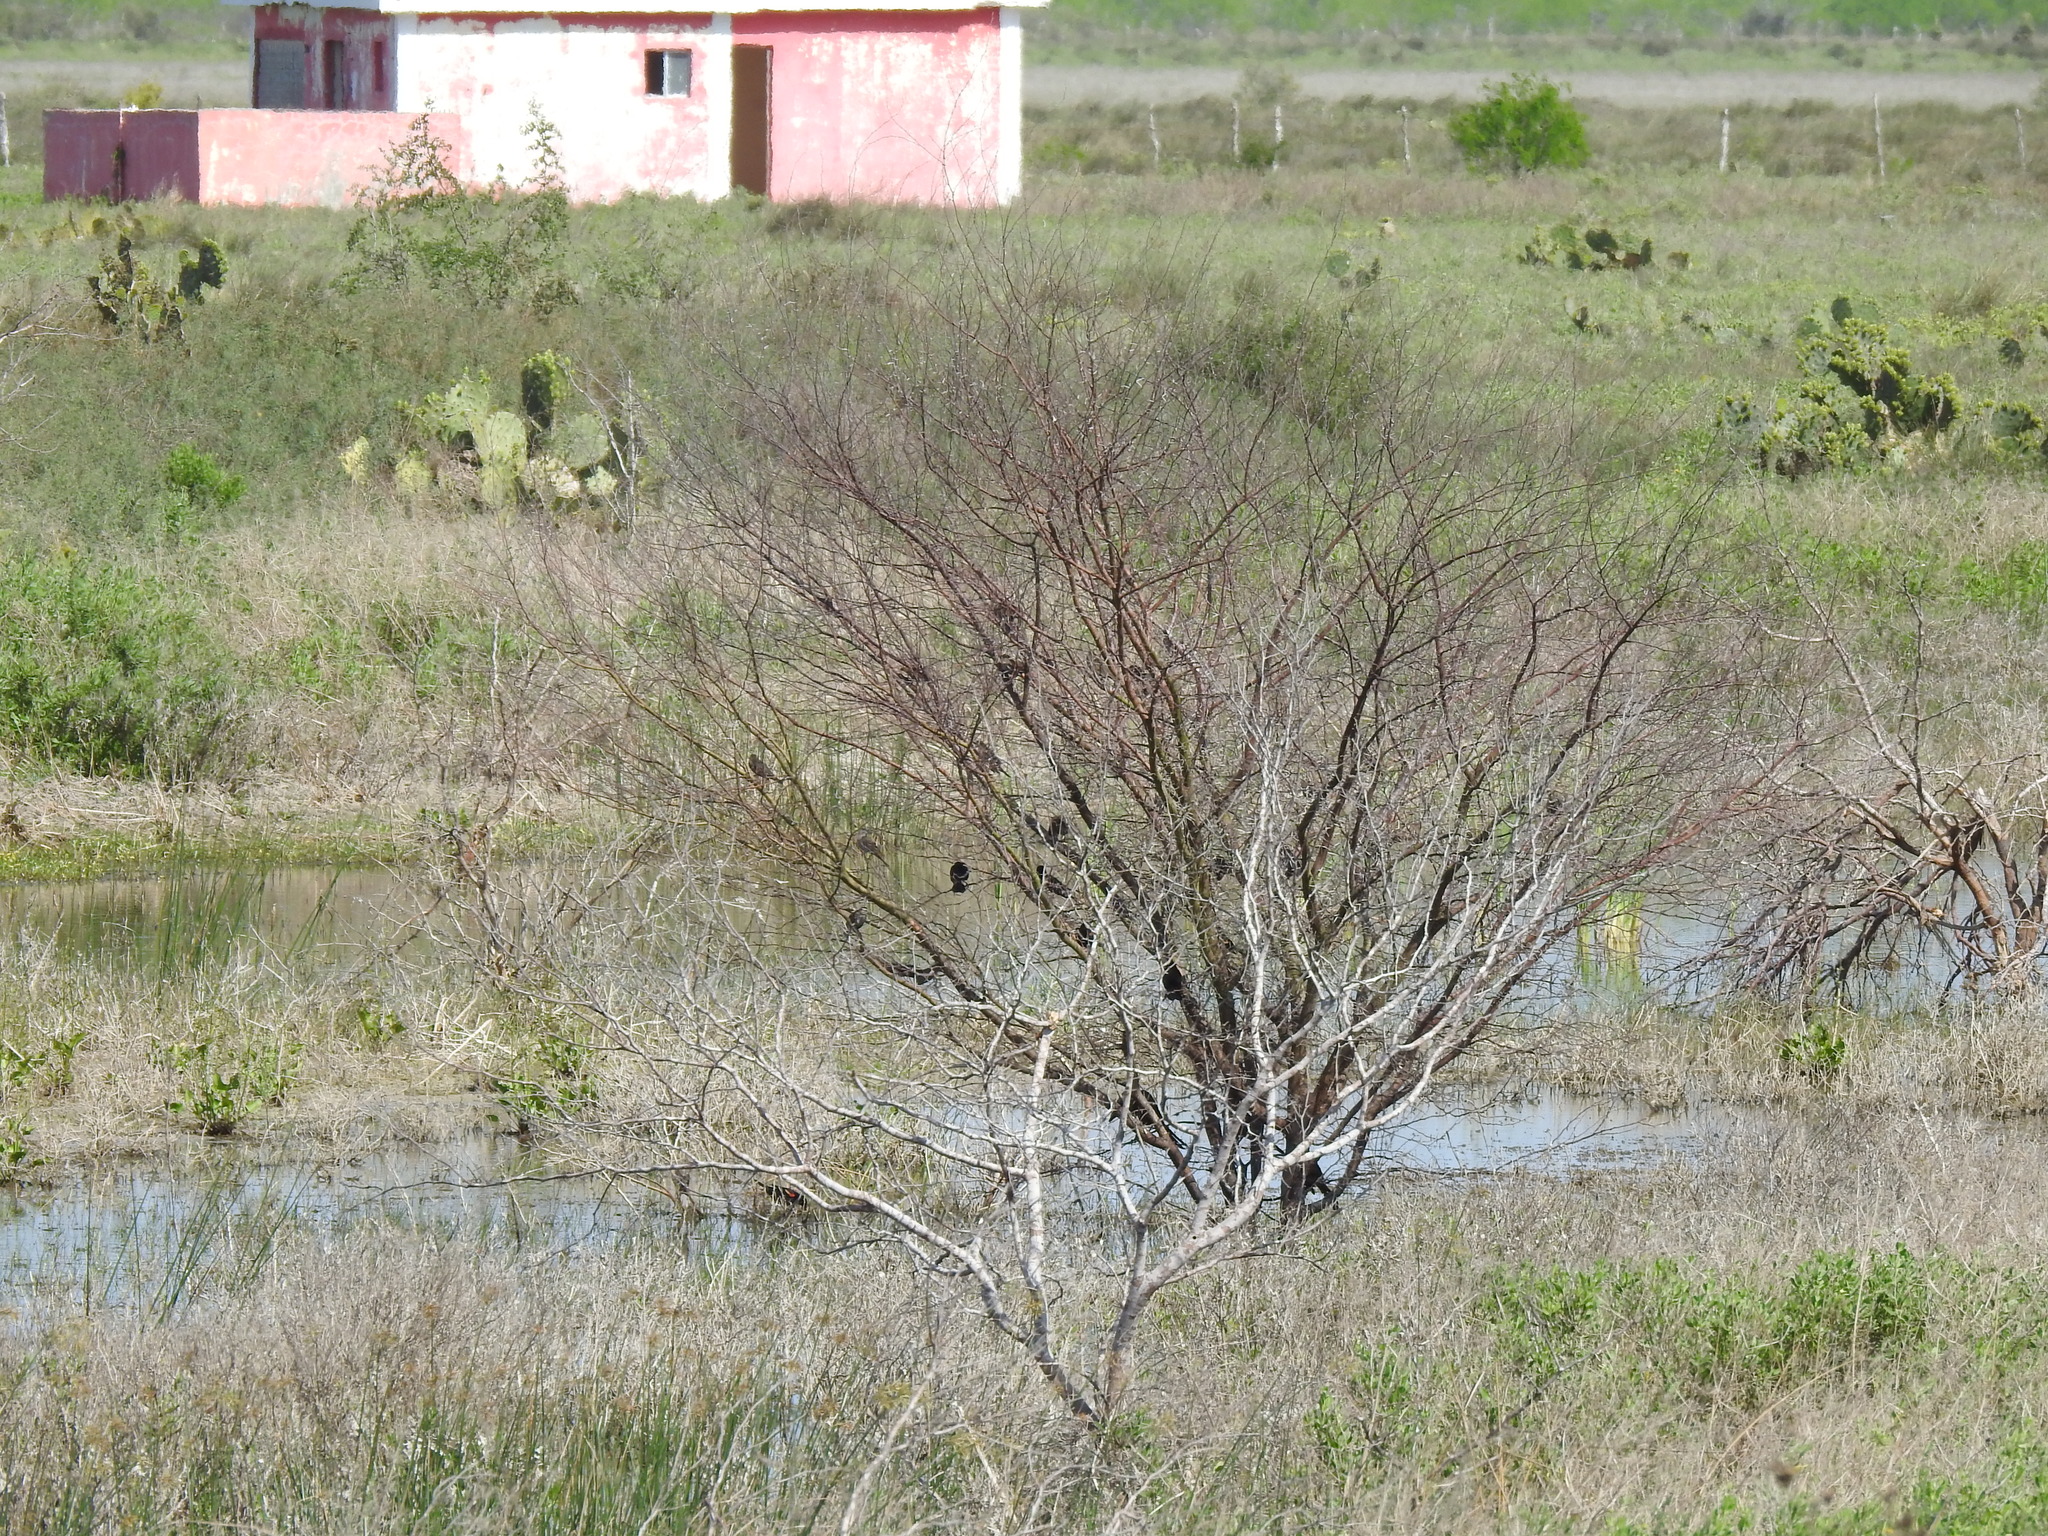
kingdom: Animalia
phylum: Chordata
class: Aves
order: Passeriformes
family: Icteridae
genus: Agelaius
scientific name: Agelaius phoeniceus
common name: Red-winged blackbird
